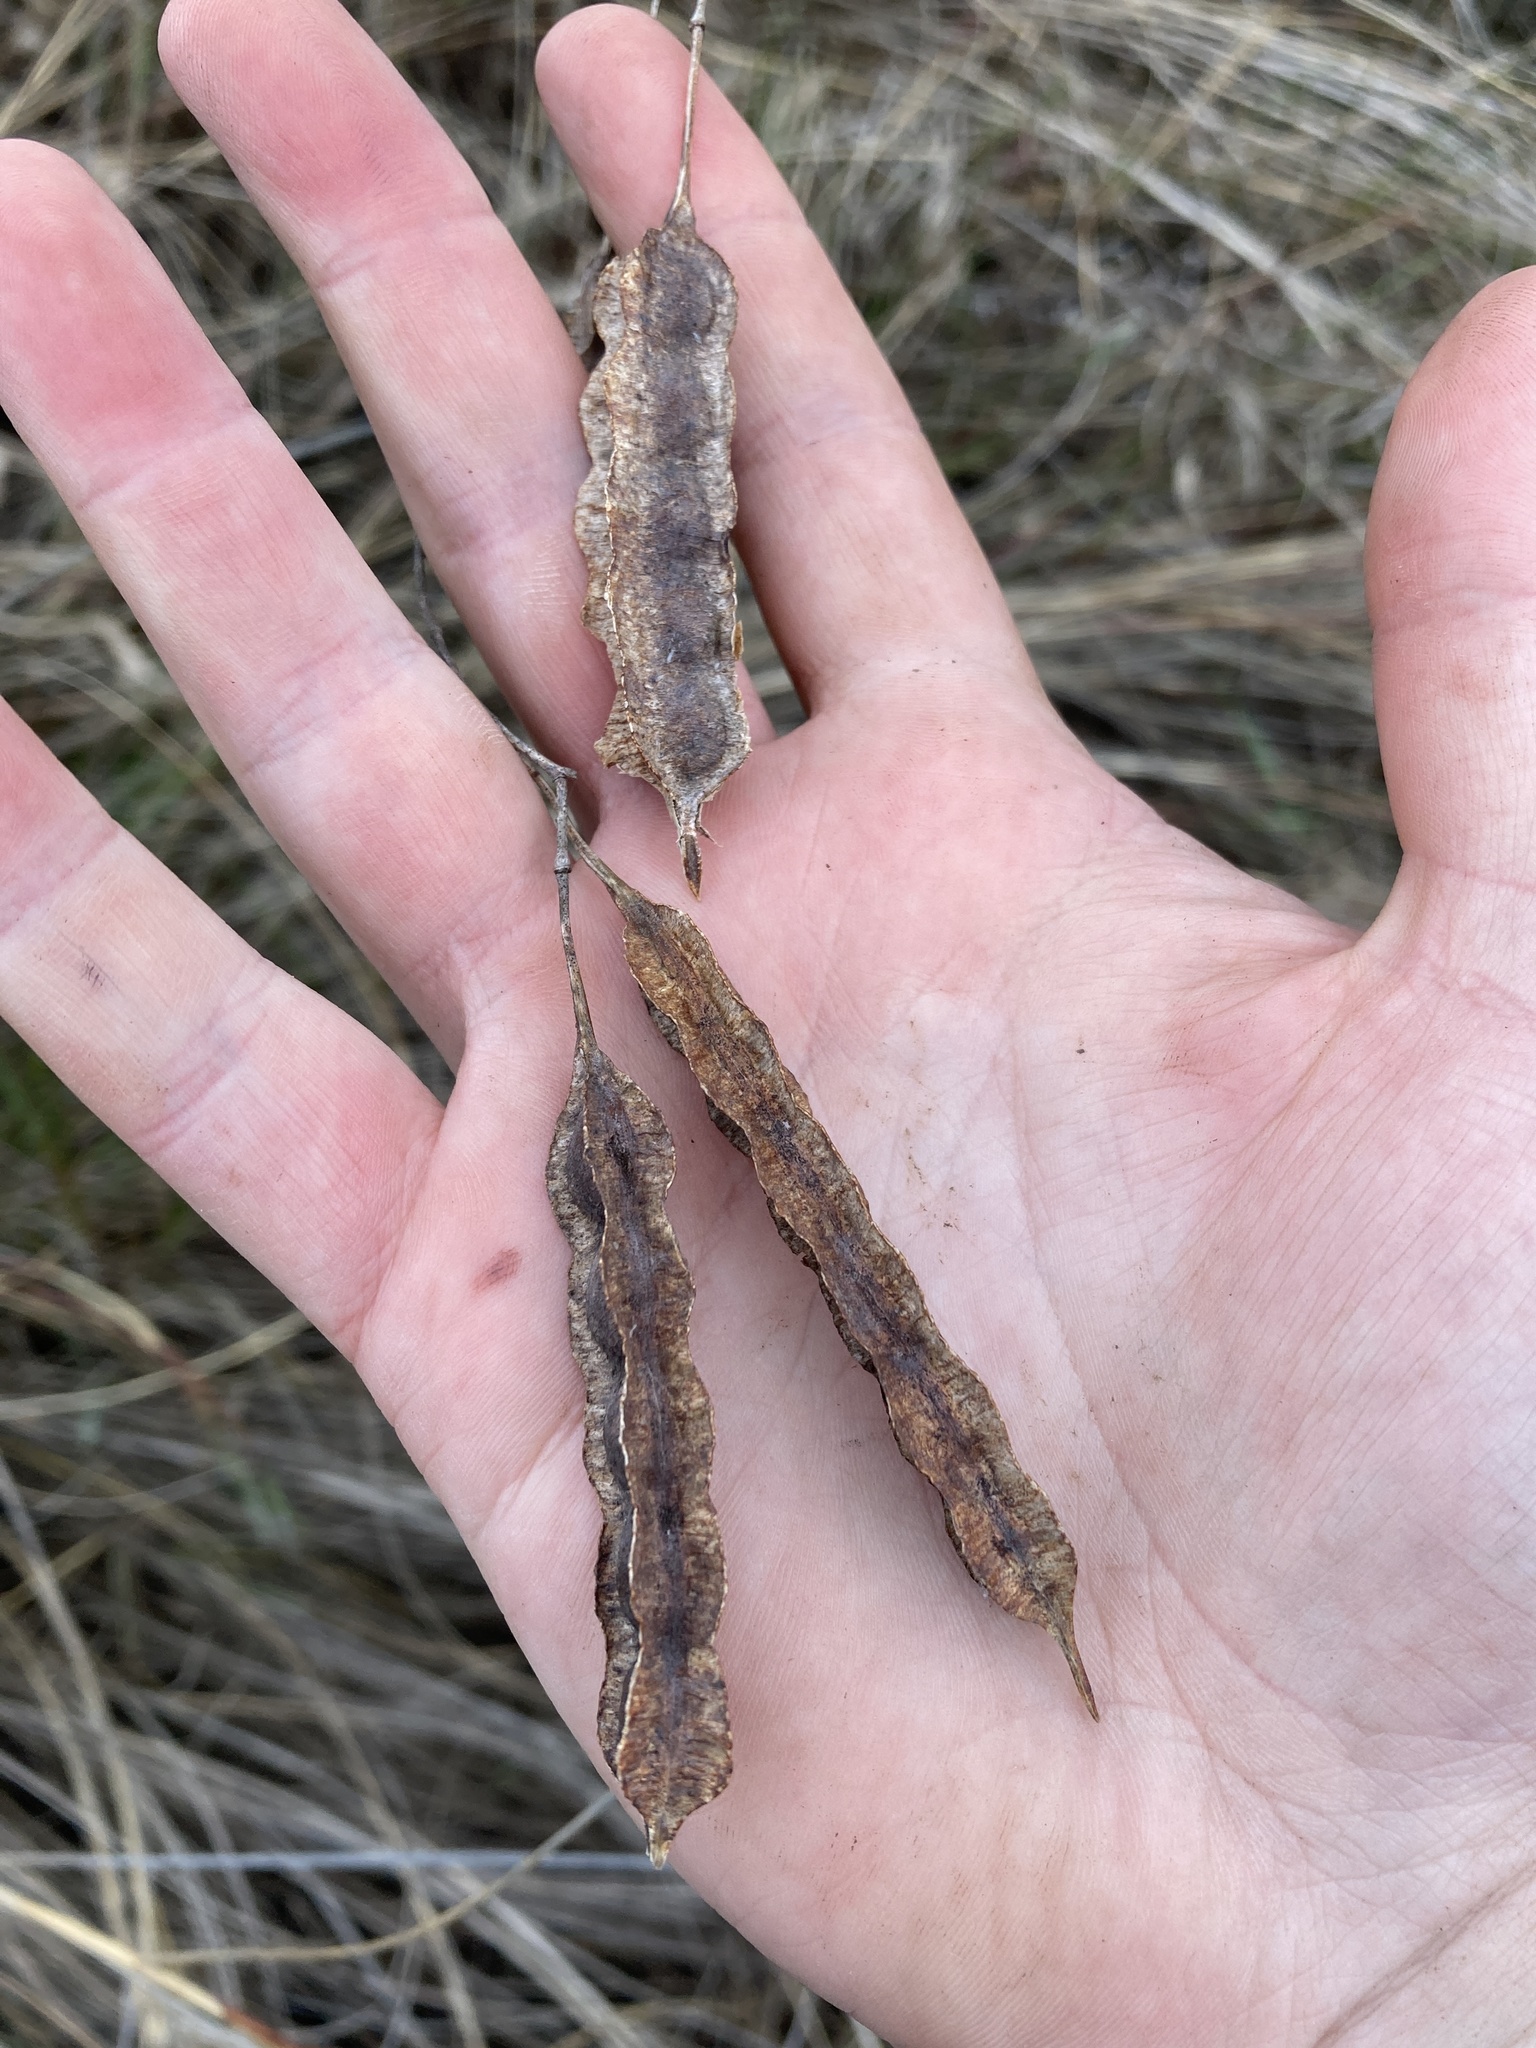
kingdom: Plantae
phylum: Tracheophyta
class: Magnoliopsida
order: Fabales
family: Fabaceae
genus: Sesbania
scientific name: Sesbania drummondii
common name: Poison-bean
